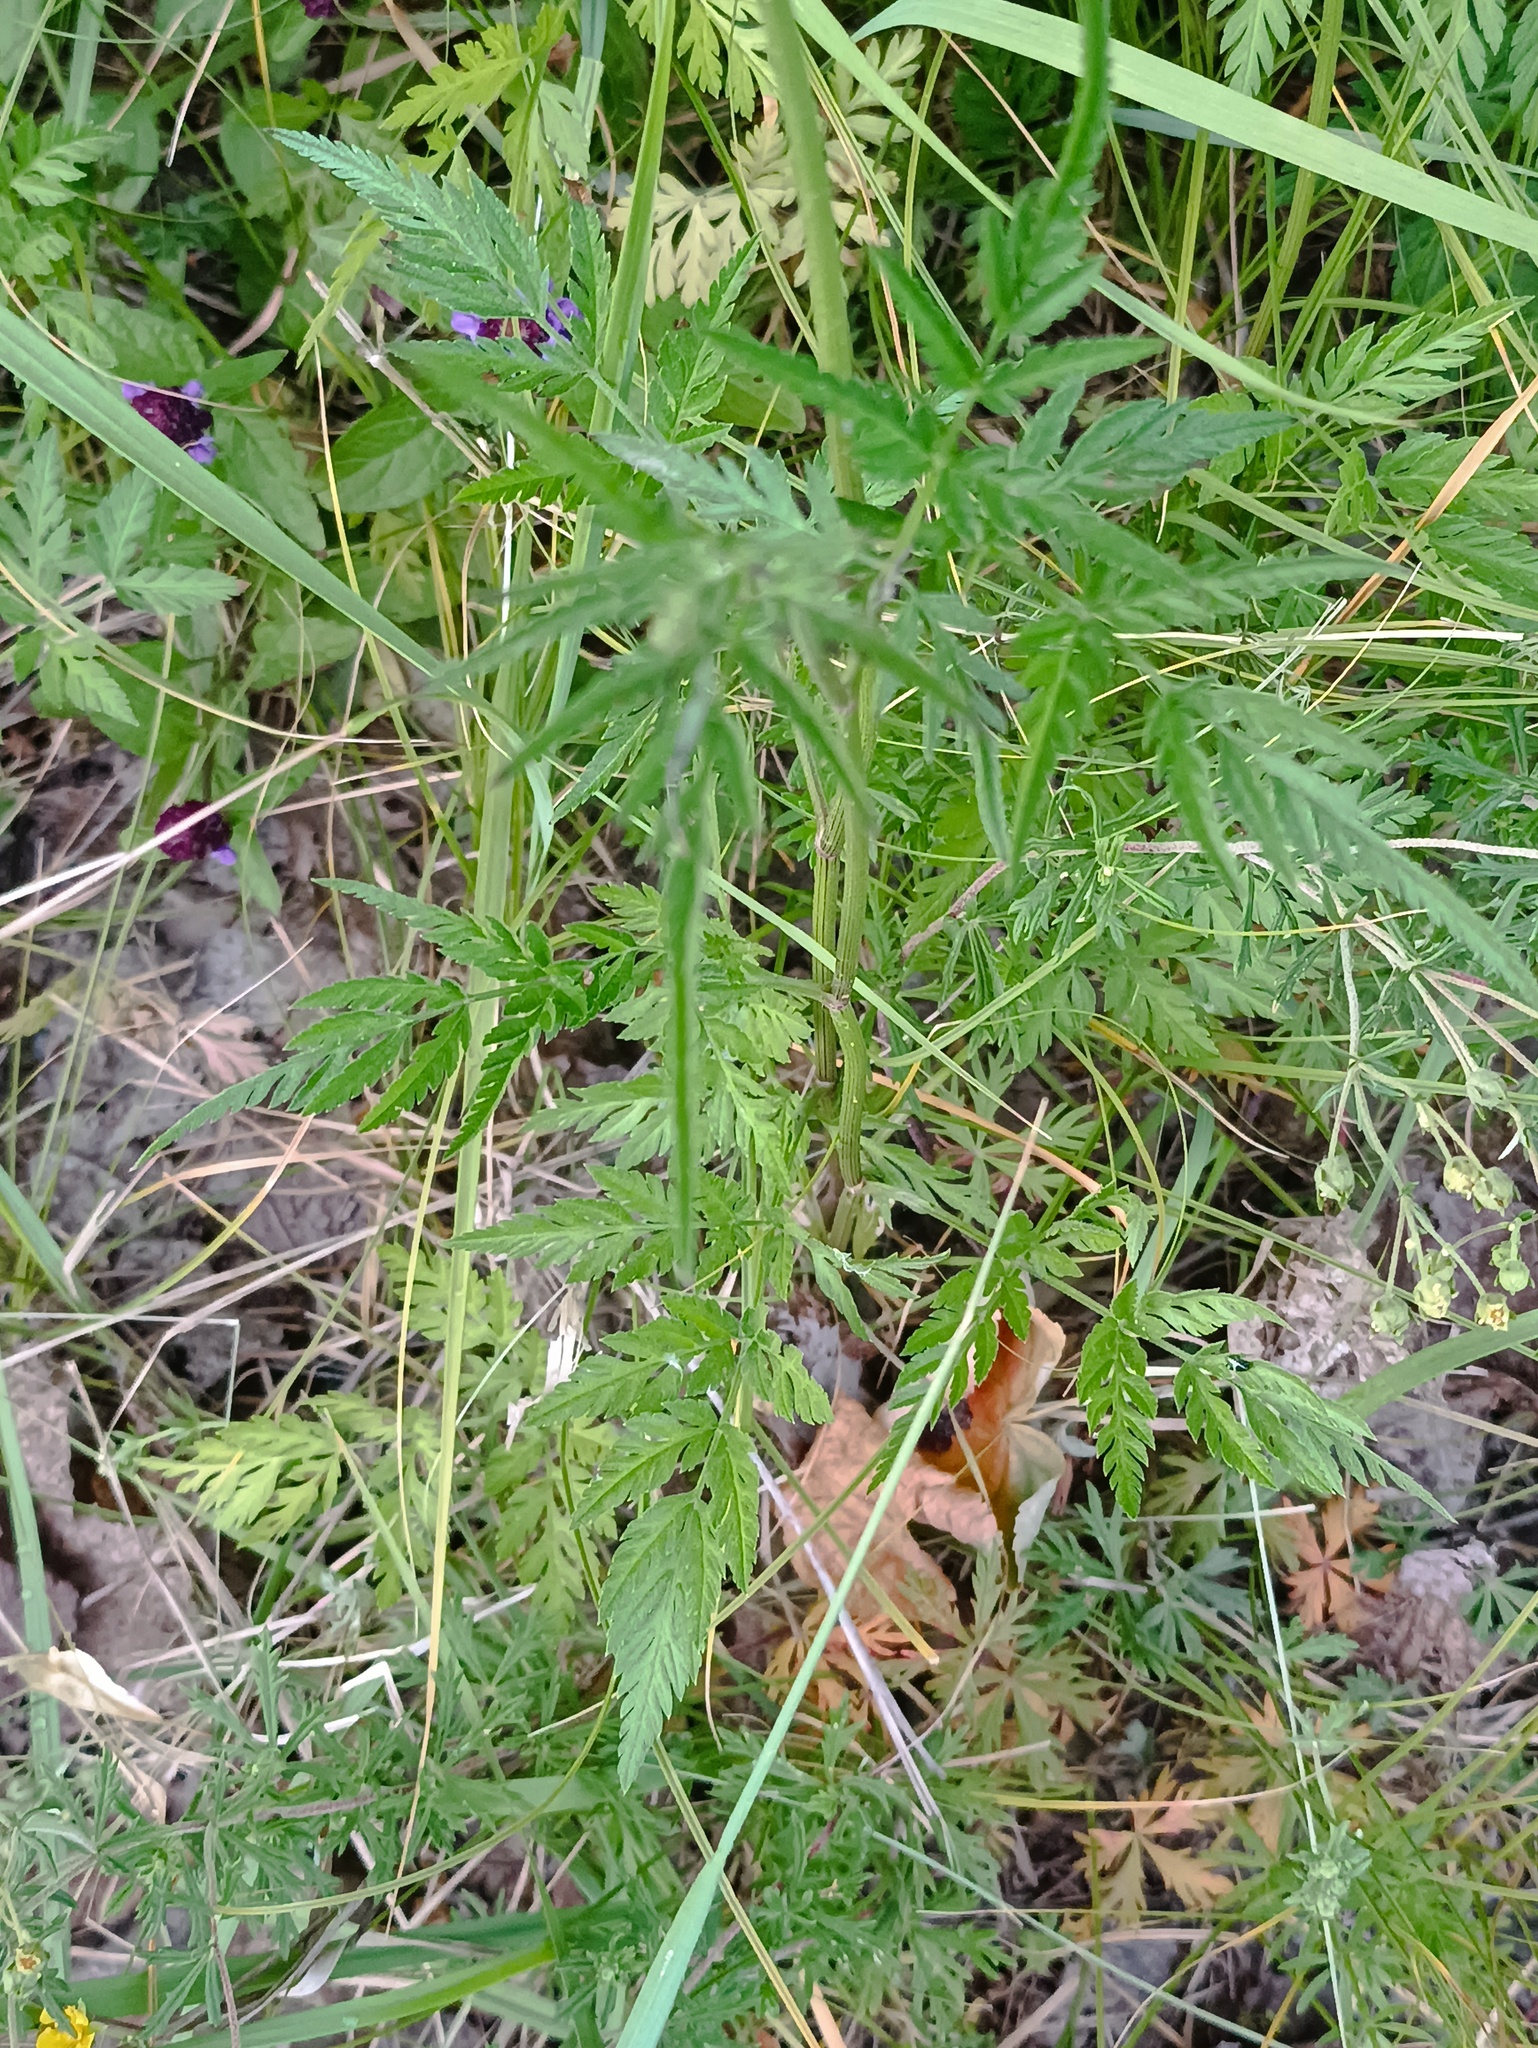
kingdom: Plantae
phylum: Tracheophyta
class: Magnoliopsida
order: Apiales
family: Apiaceae
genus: Torilis
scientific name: Torilis japonica
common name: Upright hedge-parsley
